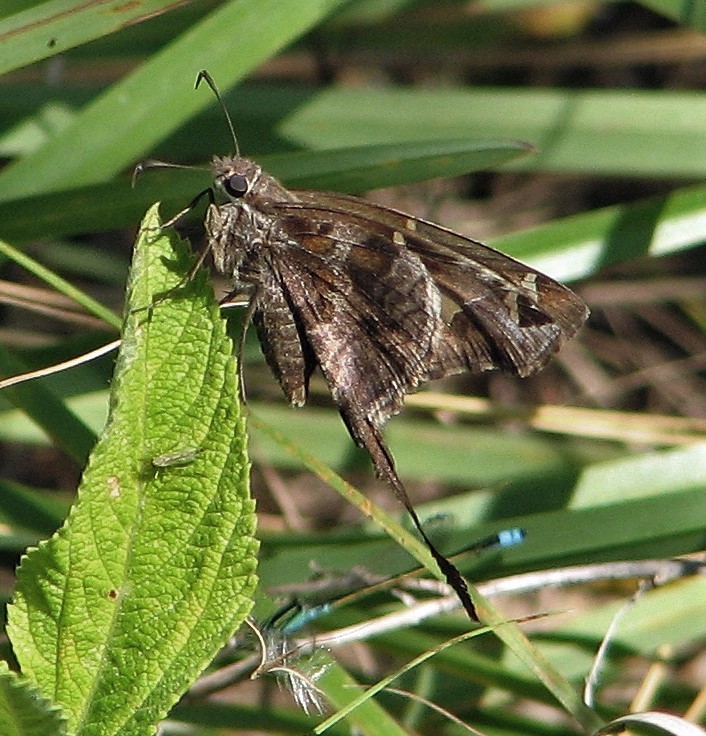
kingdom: Animalia
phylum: Arthropoda
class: Insecta
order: Lepidoptera
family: Hesperiidae
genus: Chioides
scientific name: Chioides catillus
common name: Silverbanded skipper
